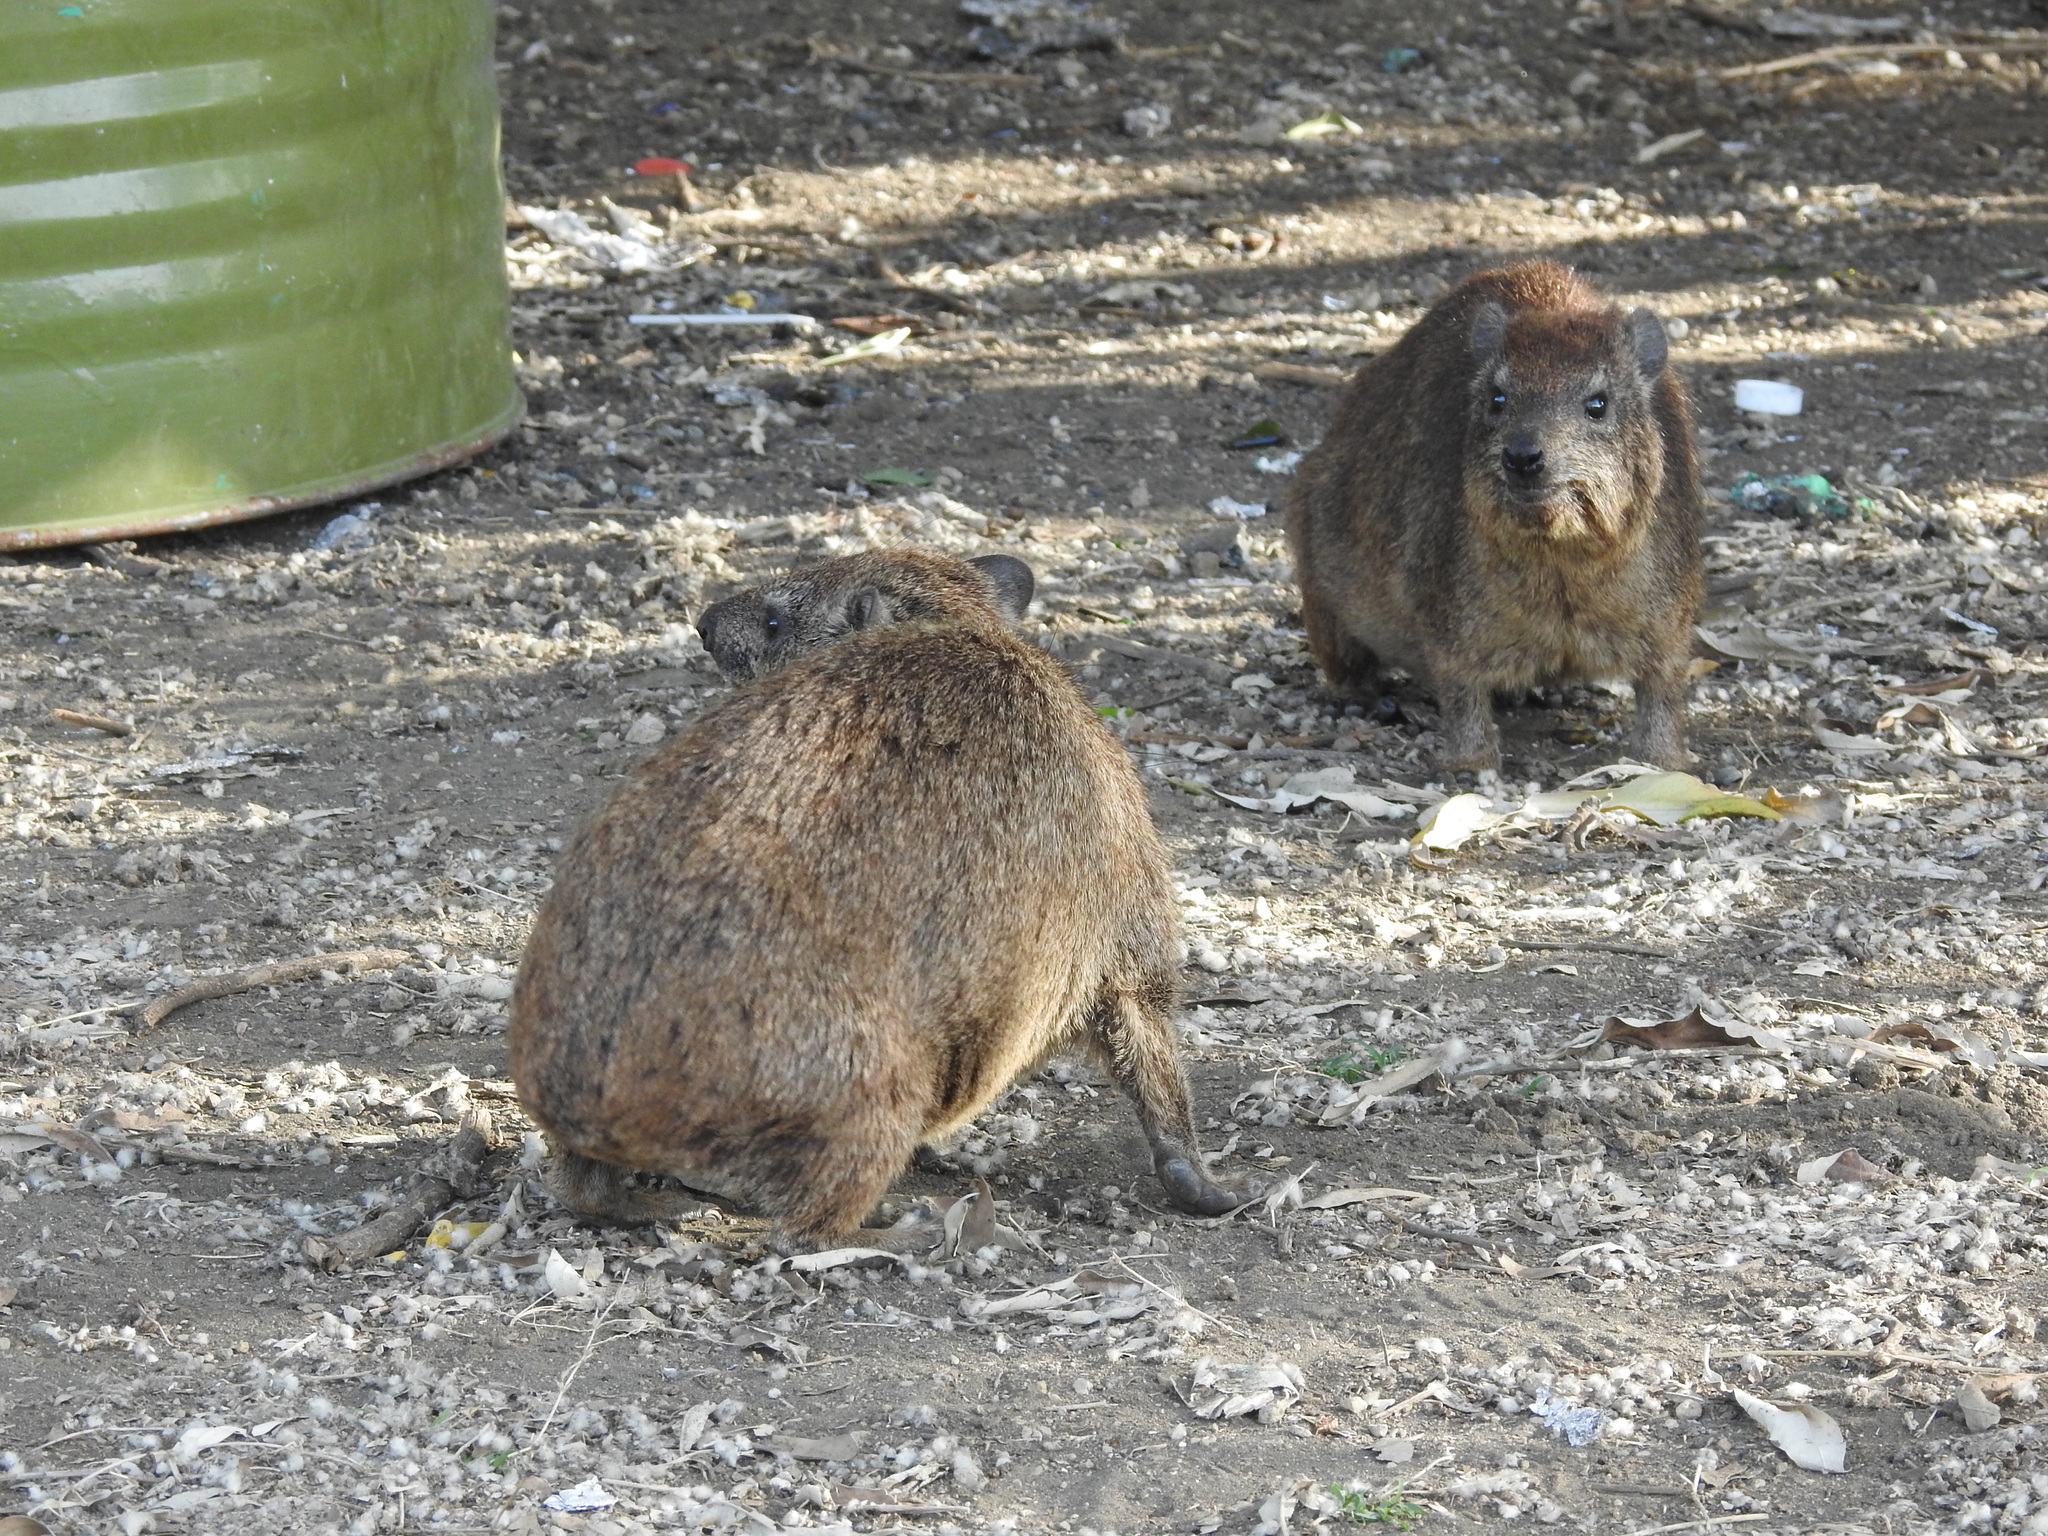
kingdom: Animalia
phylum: Chordata
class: Mammalia
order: Hyracoidea
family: Procaviidae
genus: Procavia
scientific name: Procavia capensis
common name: Rock hyrax
